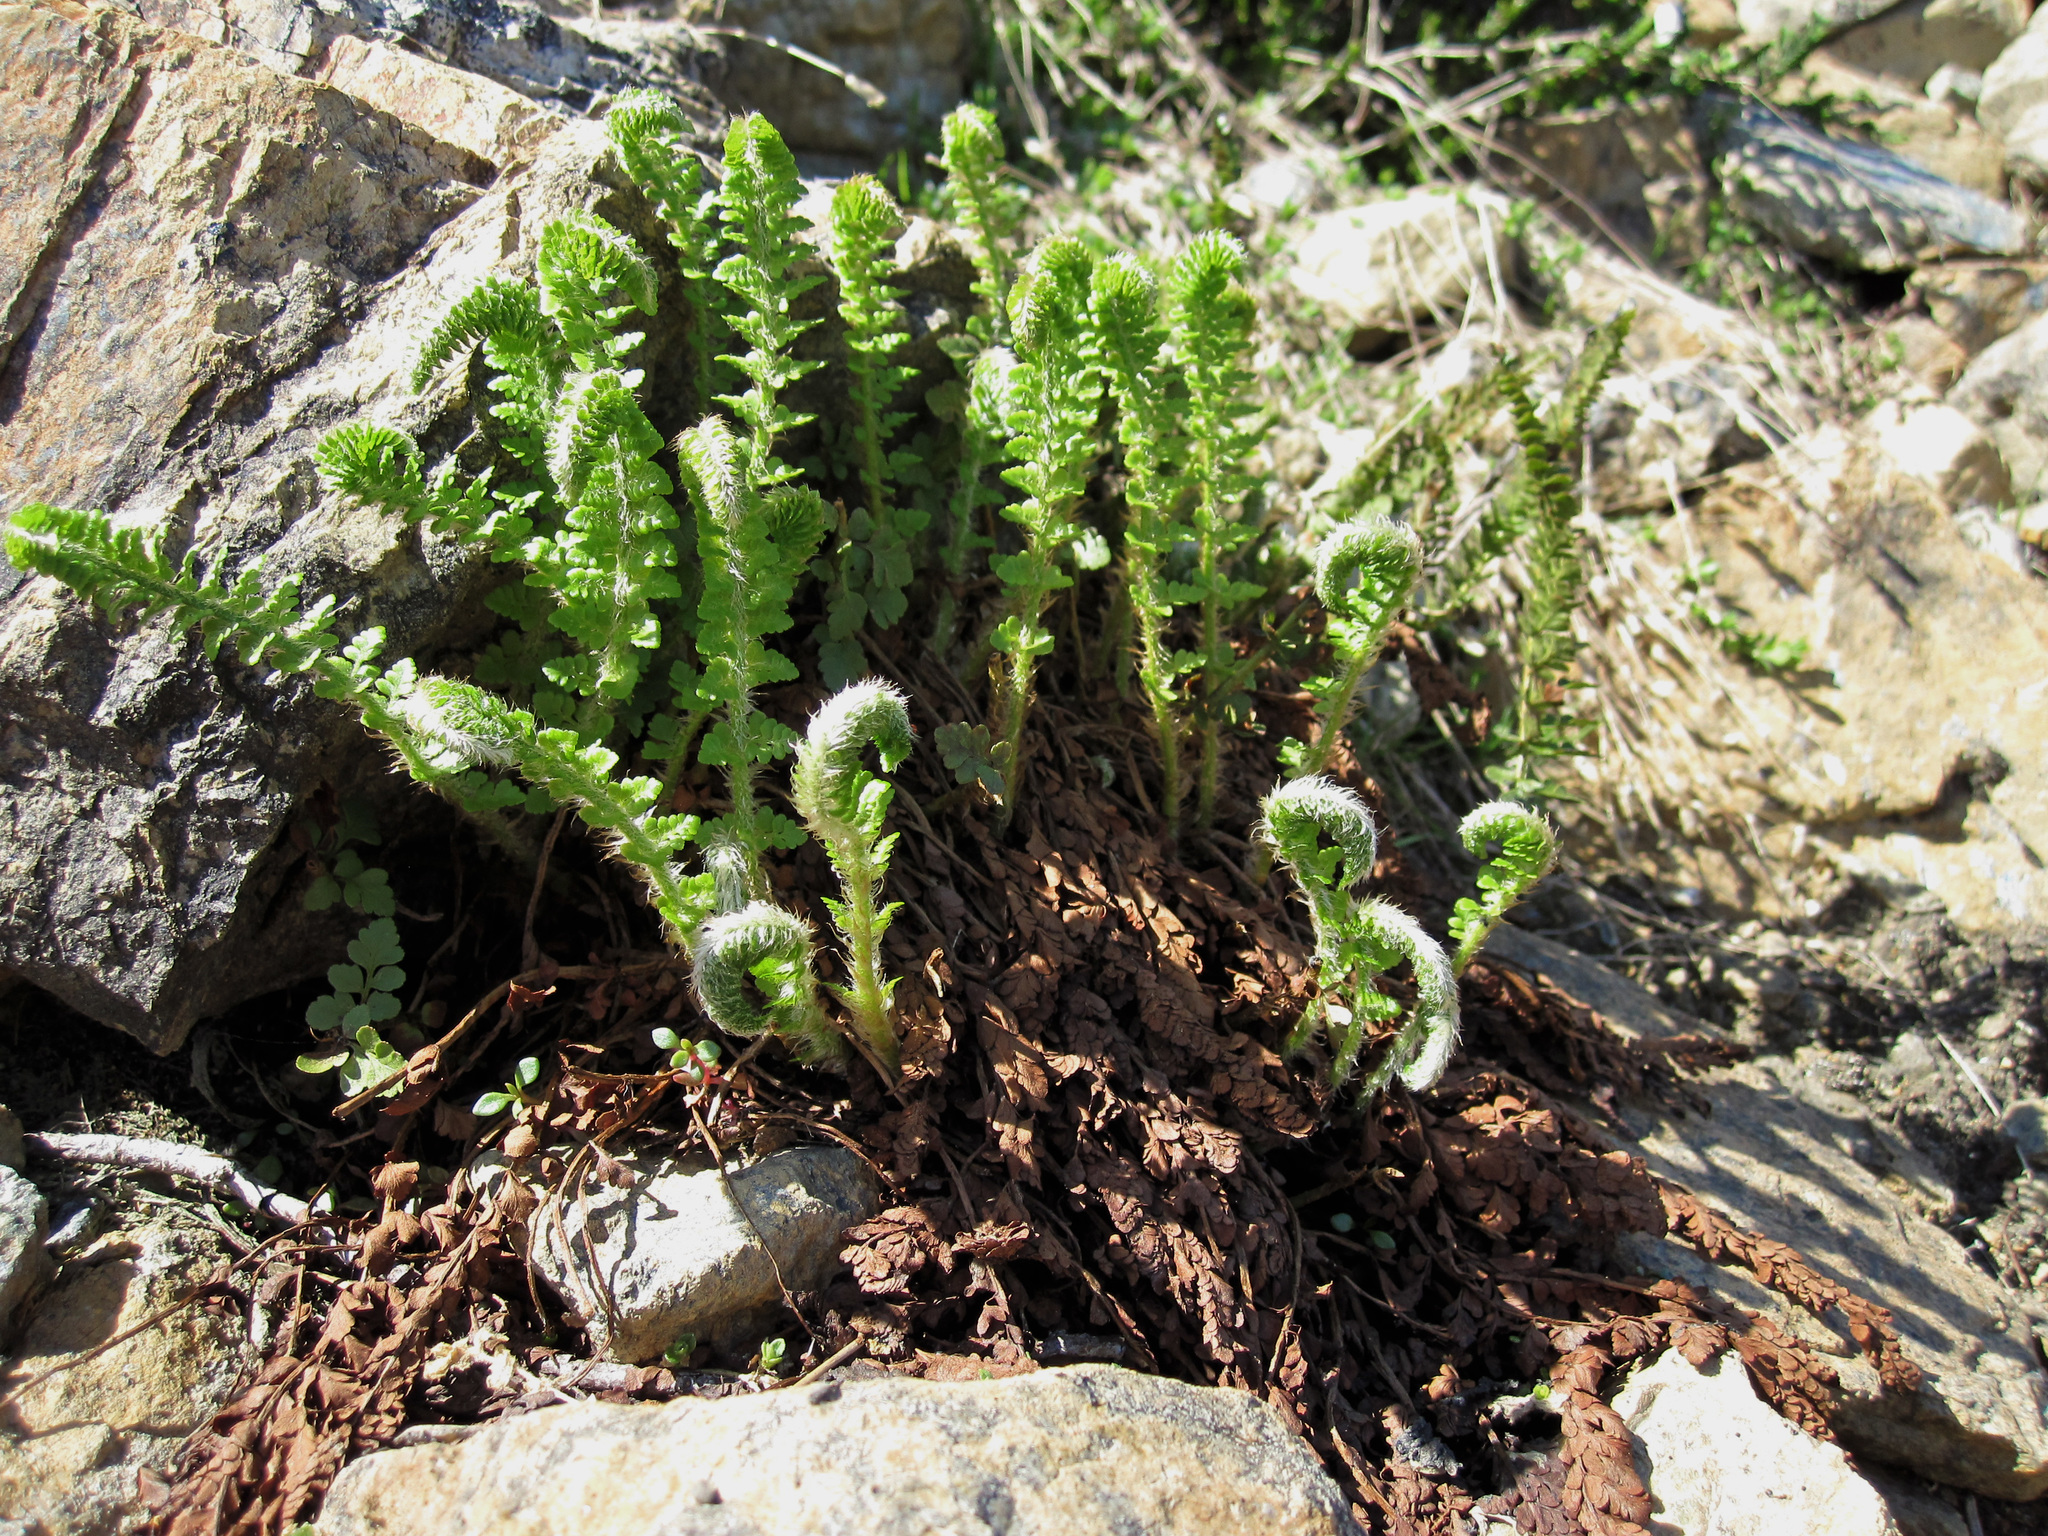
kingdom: Plantae
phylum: Tracheophyta
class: Polypodiopsida
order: Polypodiales
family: Dryopteridaceae
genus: Polystichum
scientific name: Polystichum lemmonii
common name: Lemmon's holly fern
